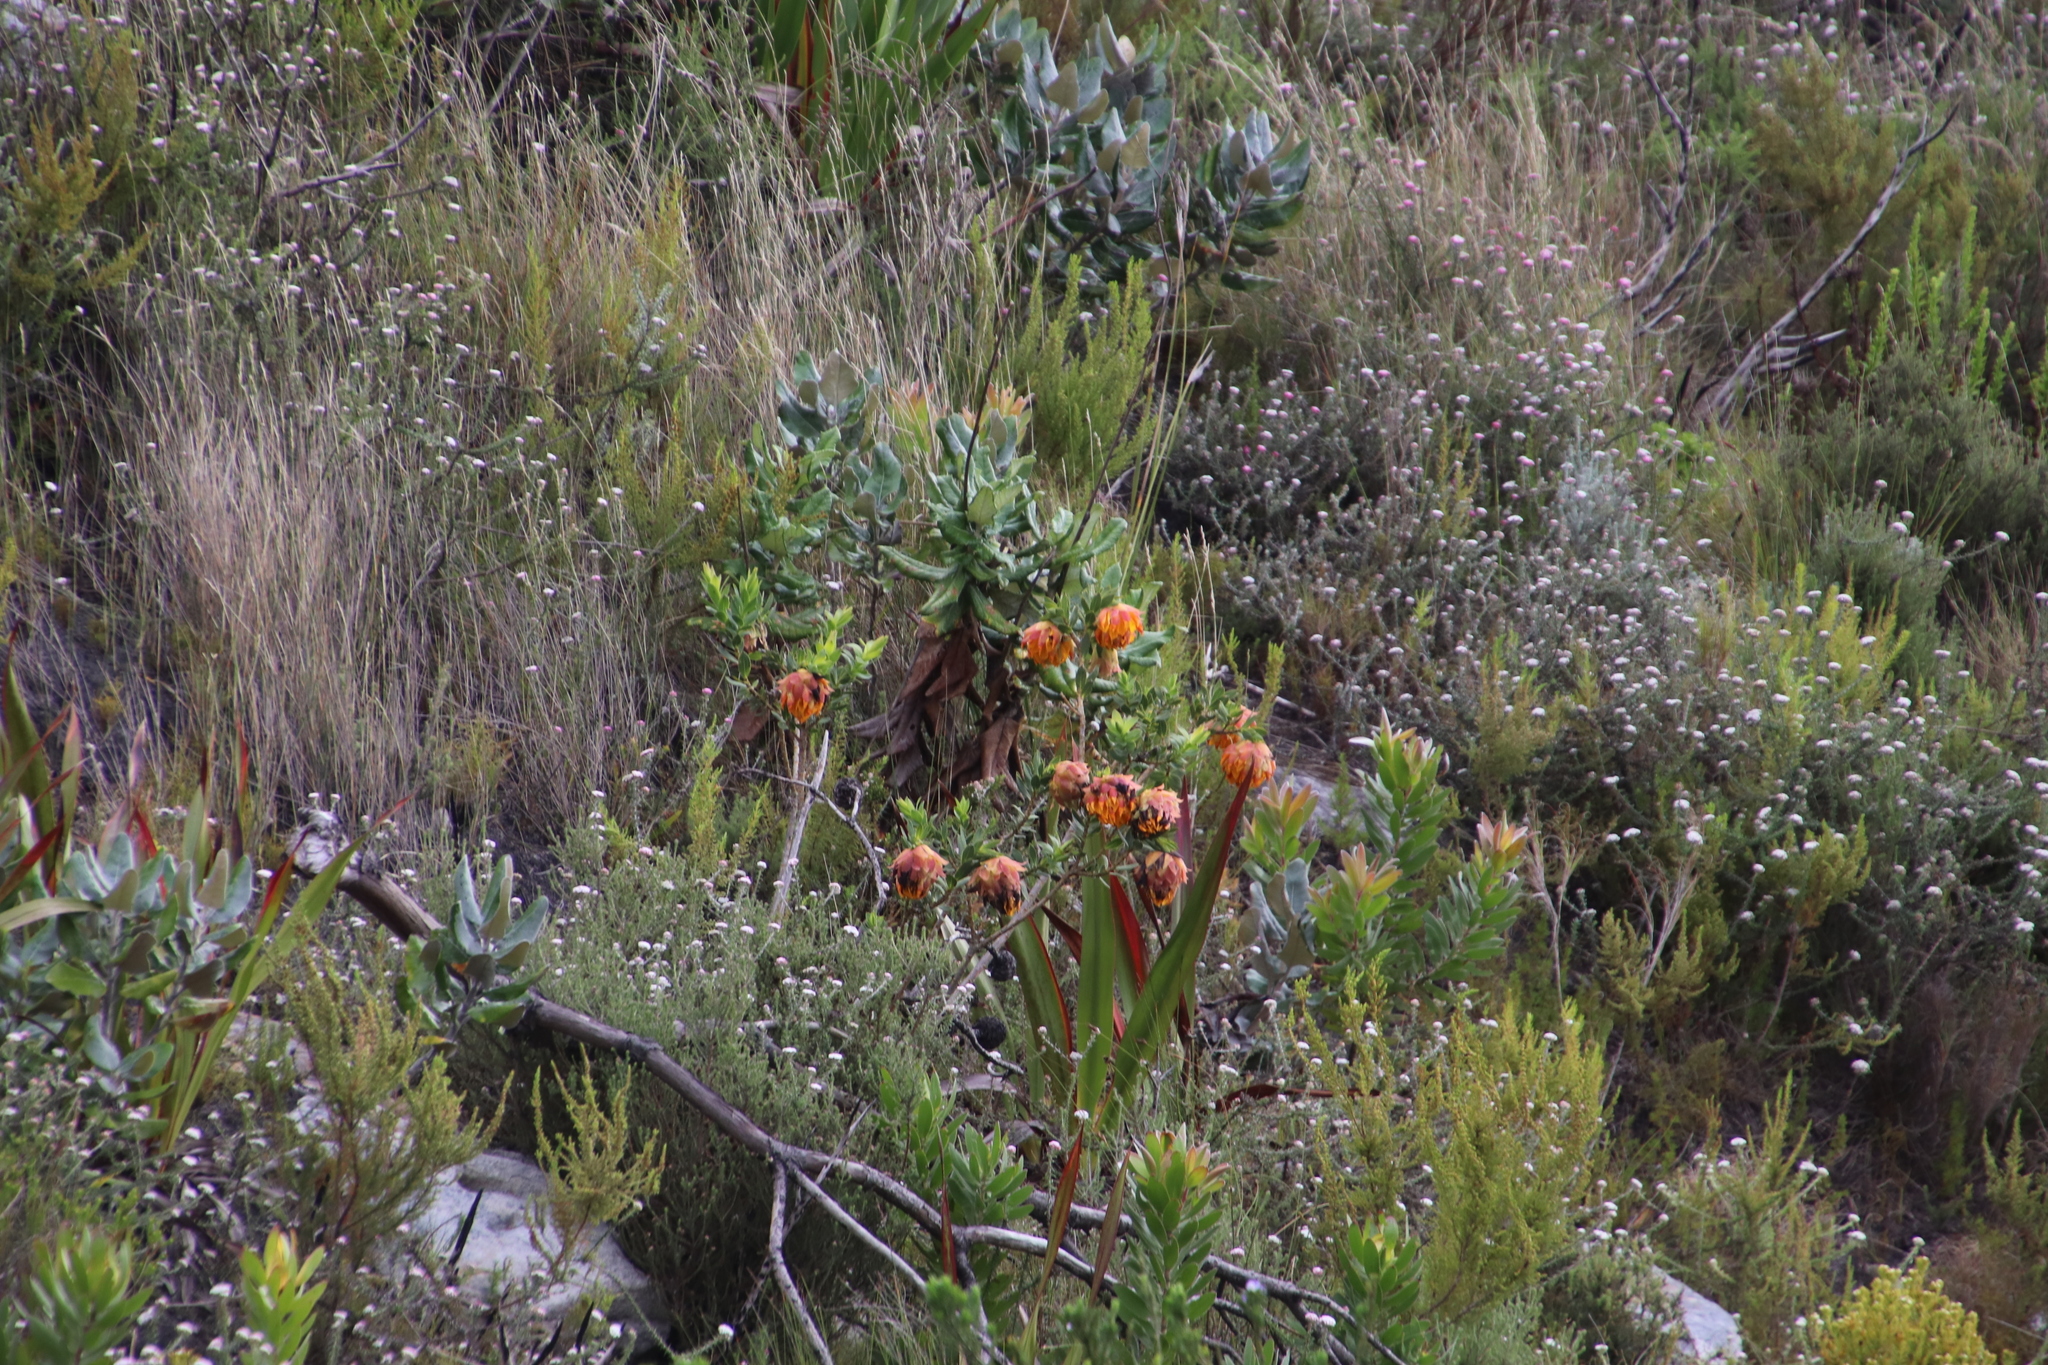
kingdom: Plantae
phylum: Tracheophyta
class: Magnoliopsida
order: Fabales
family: Fabaceae
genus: Liparia
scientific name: Liparia splendens
